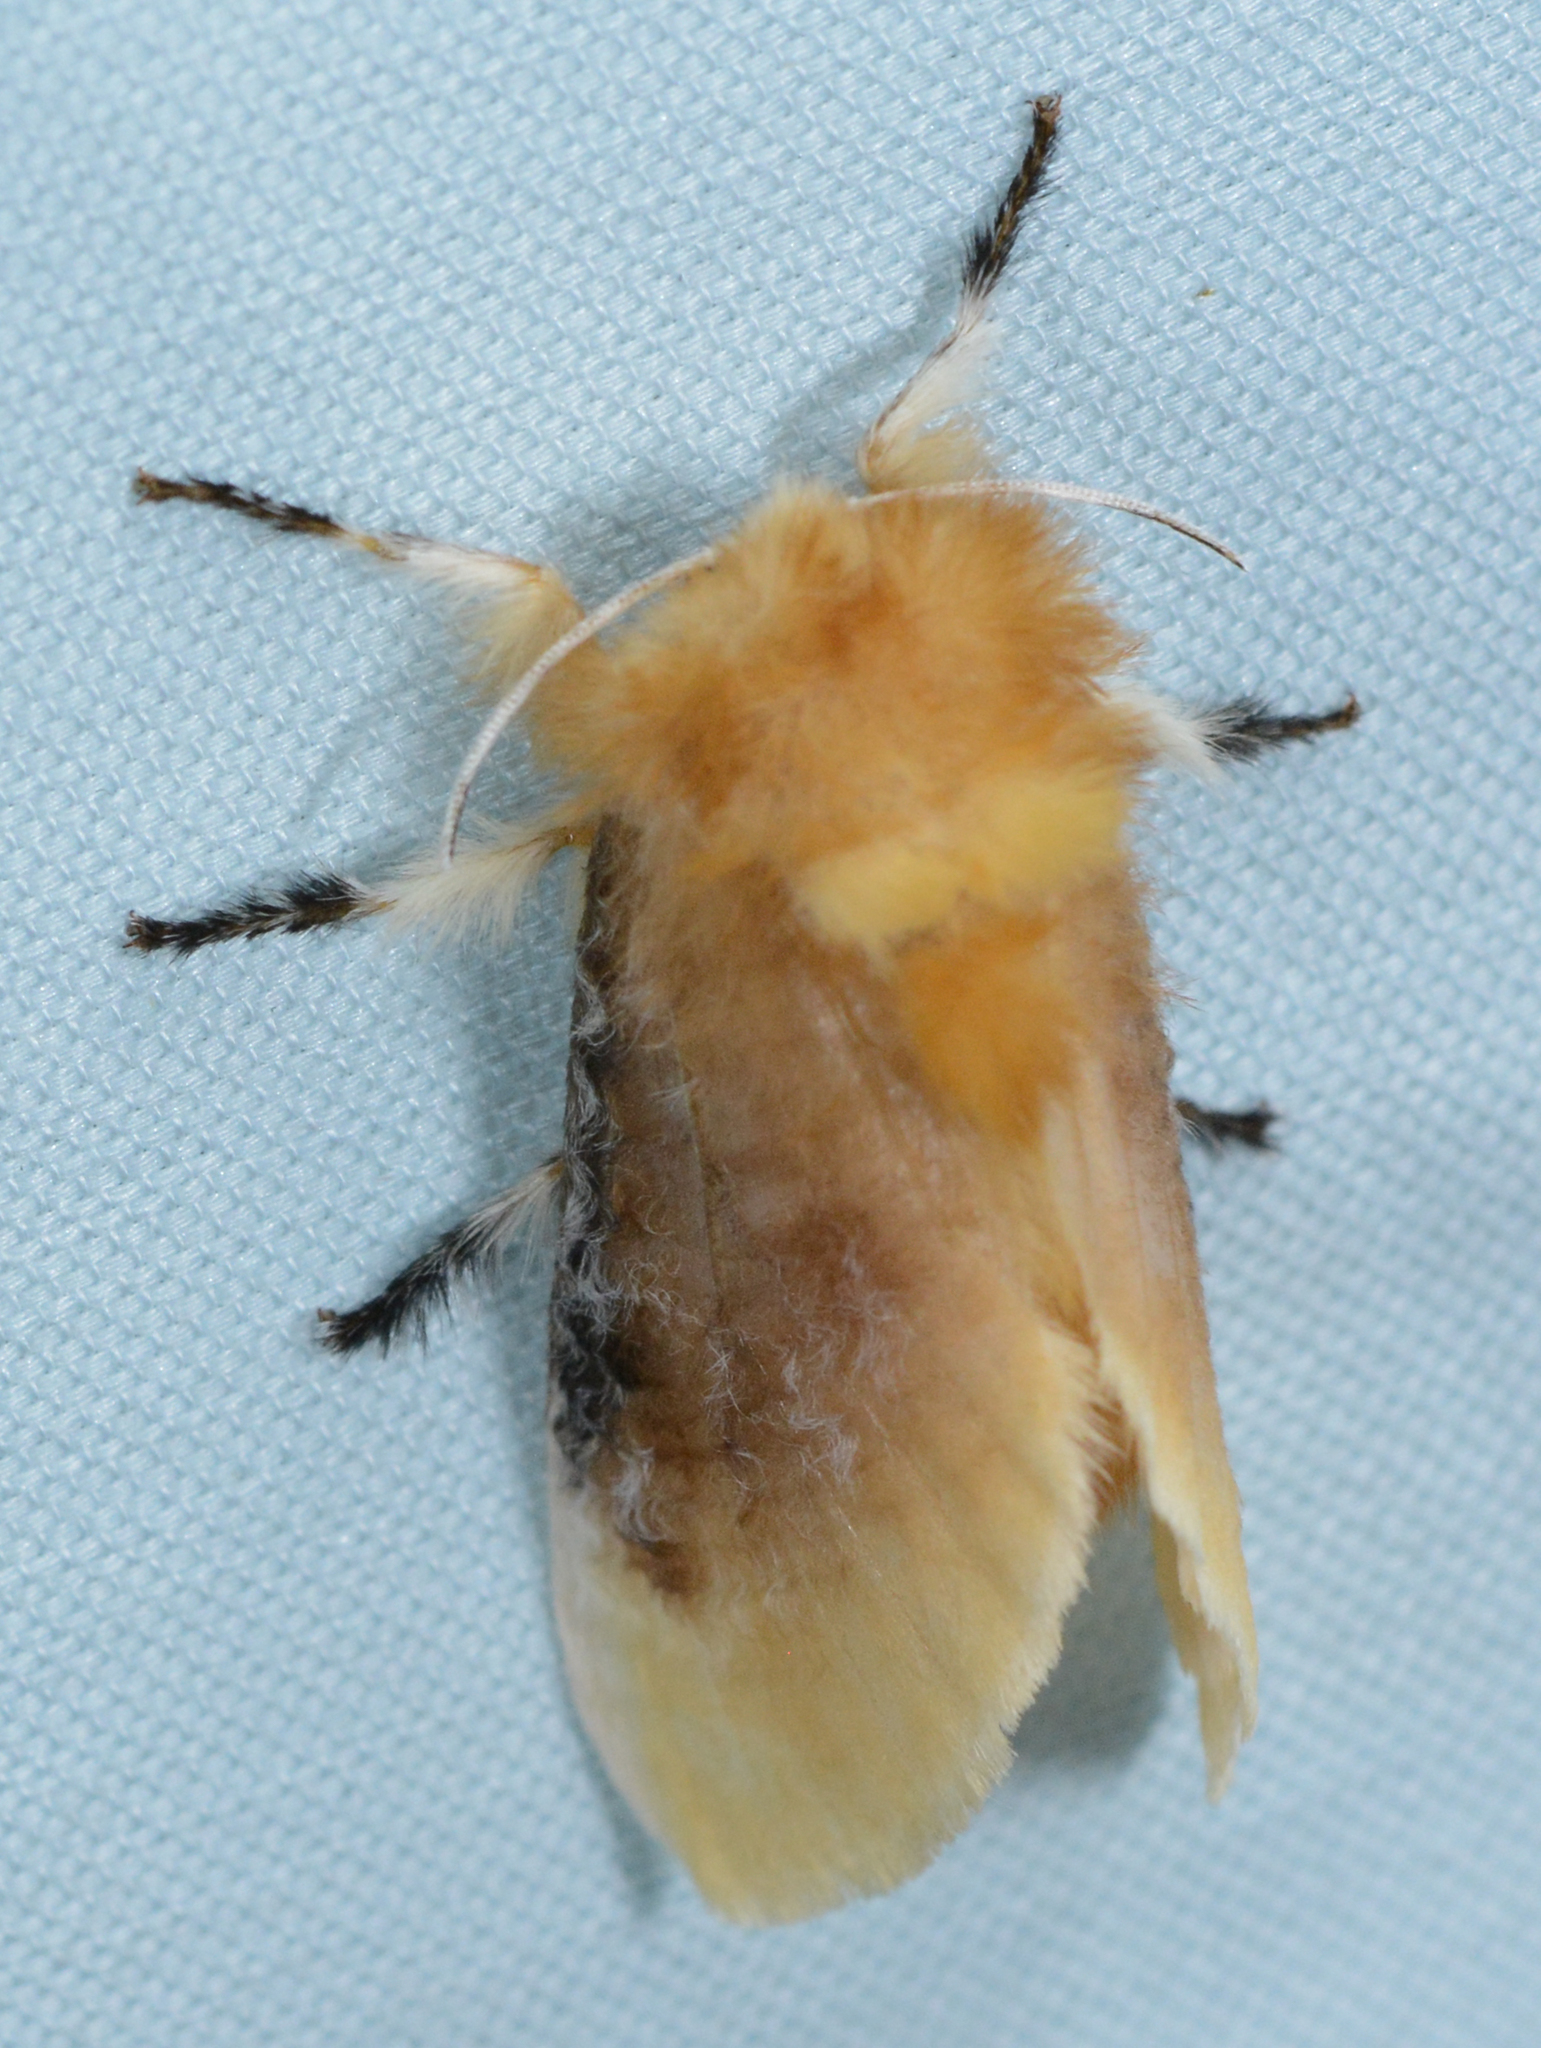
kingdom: Animalia
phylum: Arthropoda
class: Insecta
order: Lepidoptera
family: Megalopygidae
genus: Megalopyge
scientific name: Megalopyge opercularis
